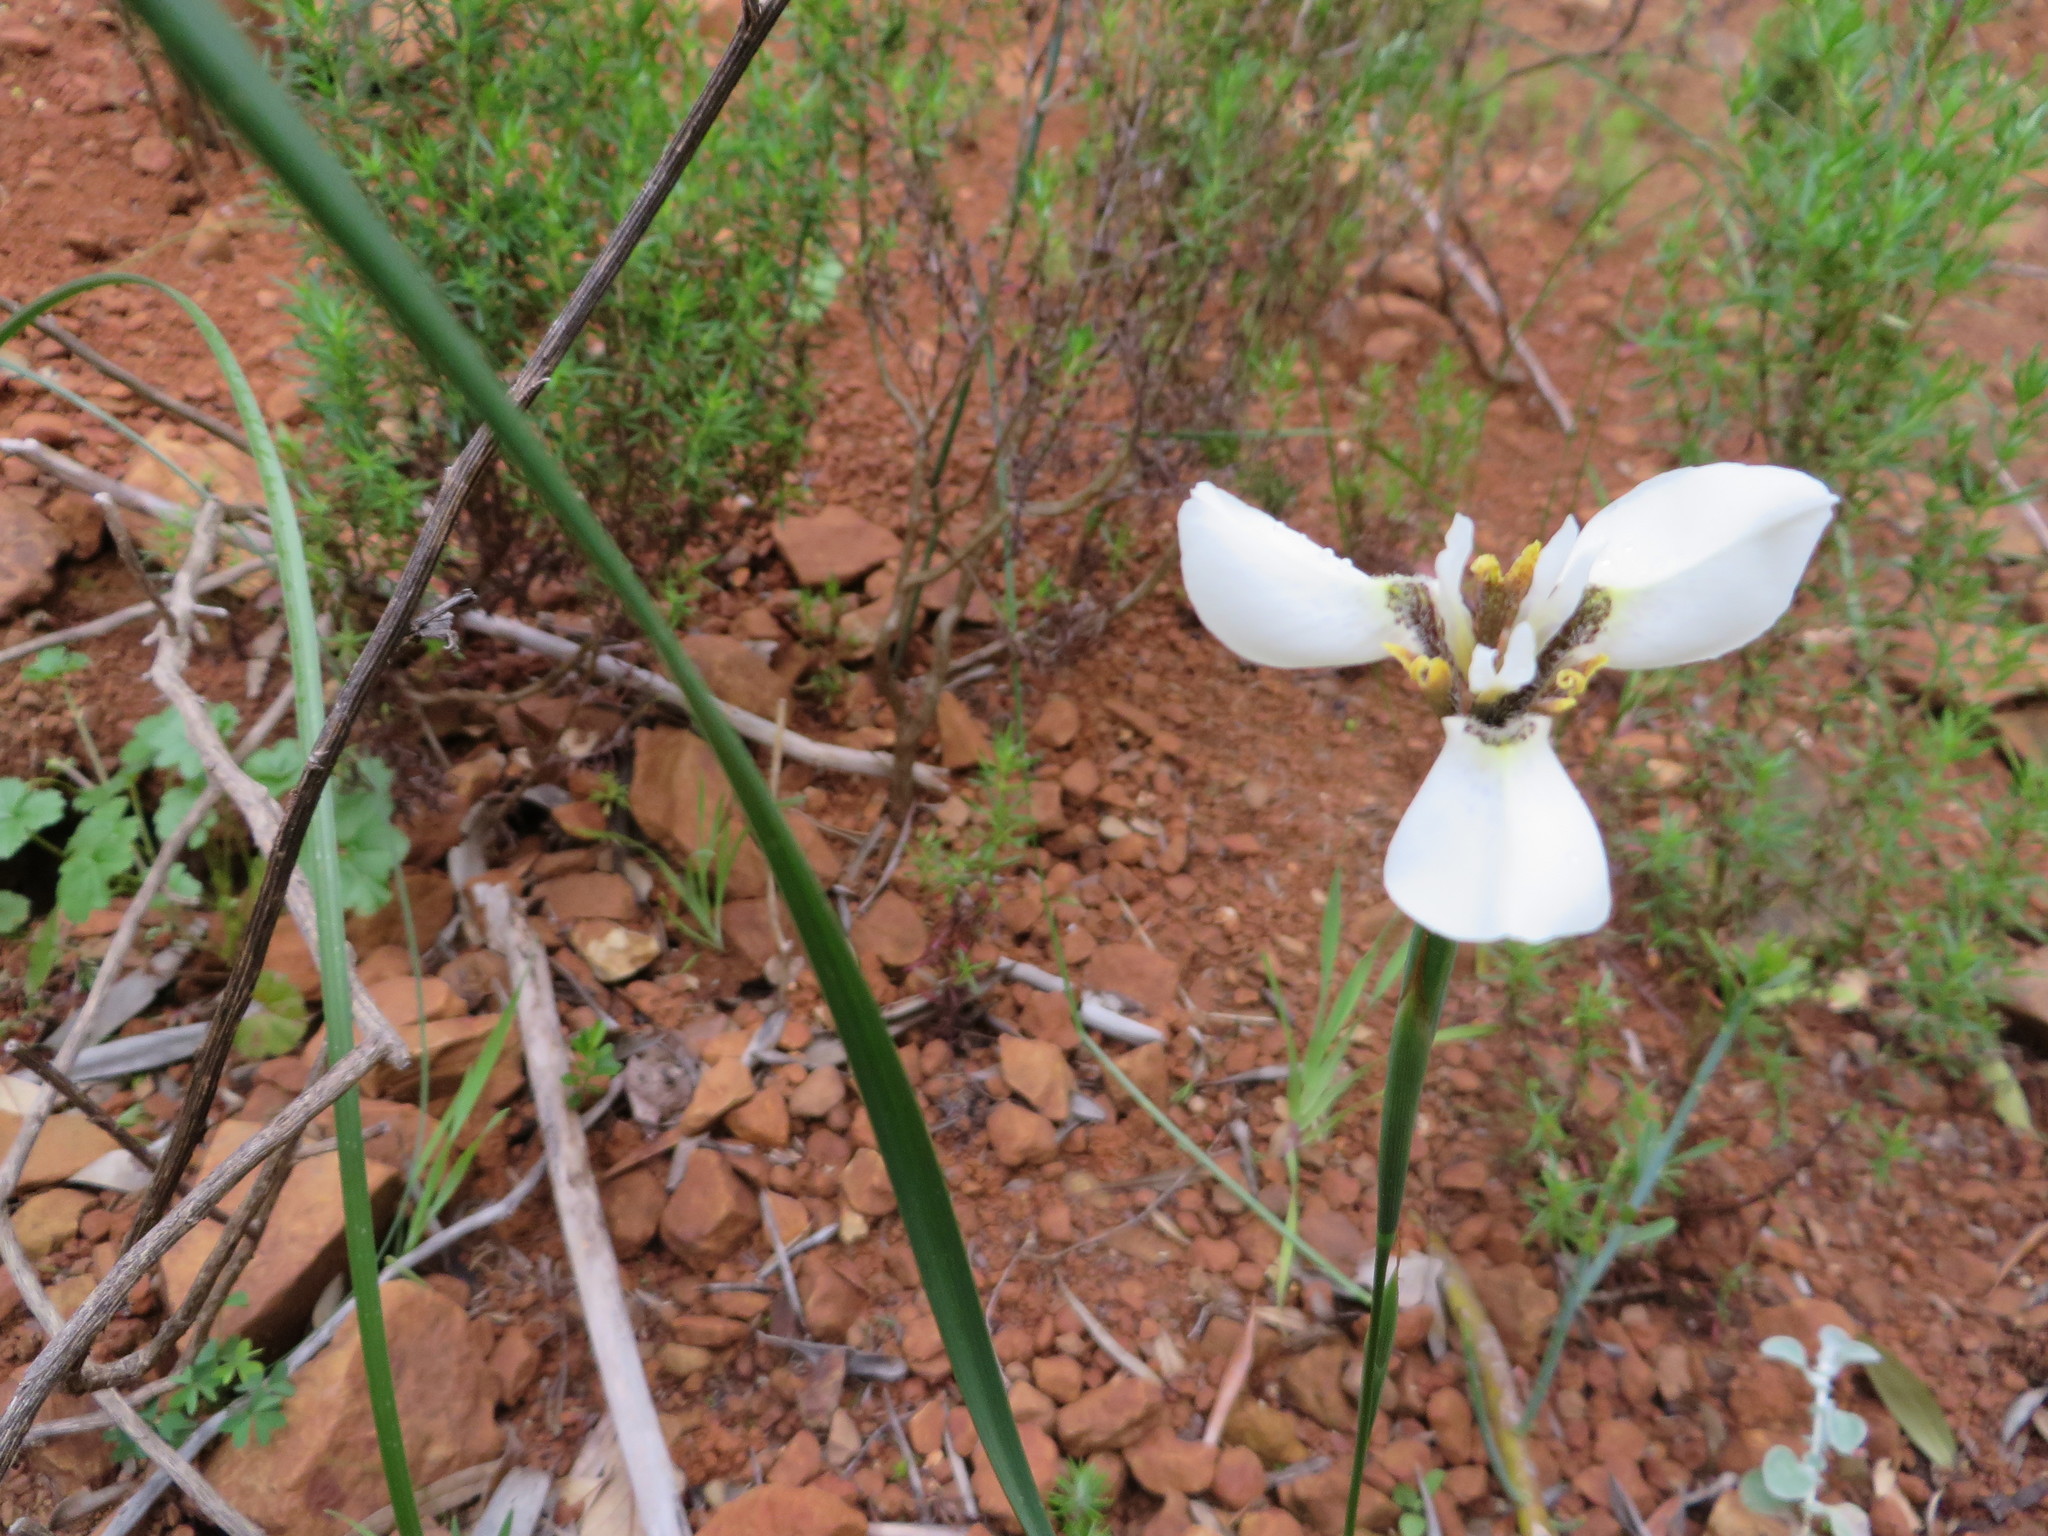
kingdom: Plantae
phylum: Tracheophyta
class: Liliopsida
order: Asparagales
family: Iridaceae
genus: Moraea
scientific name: Moraea tricuspidata
